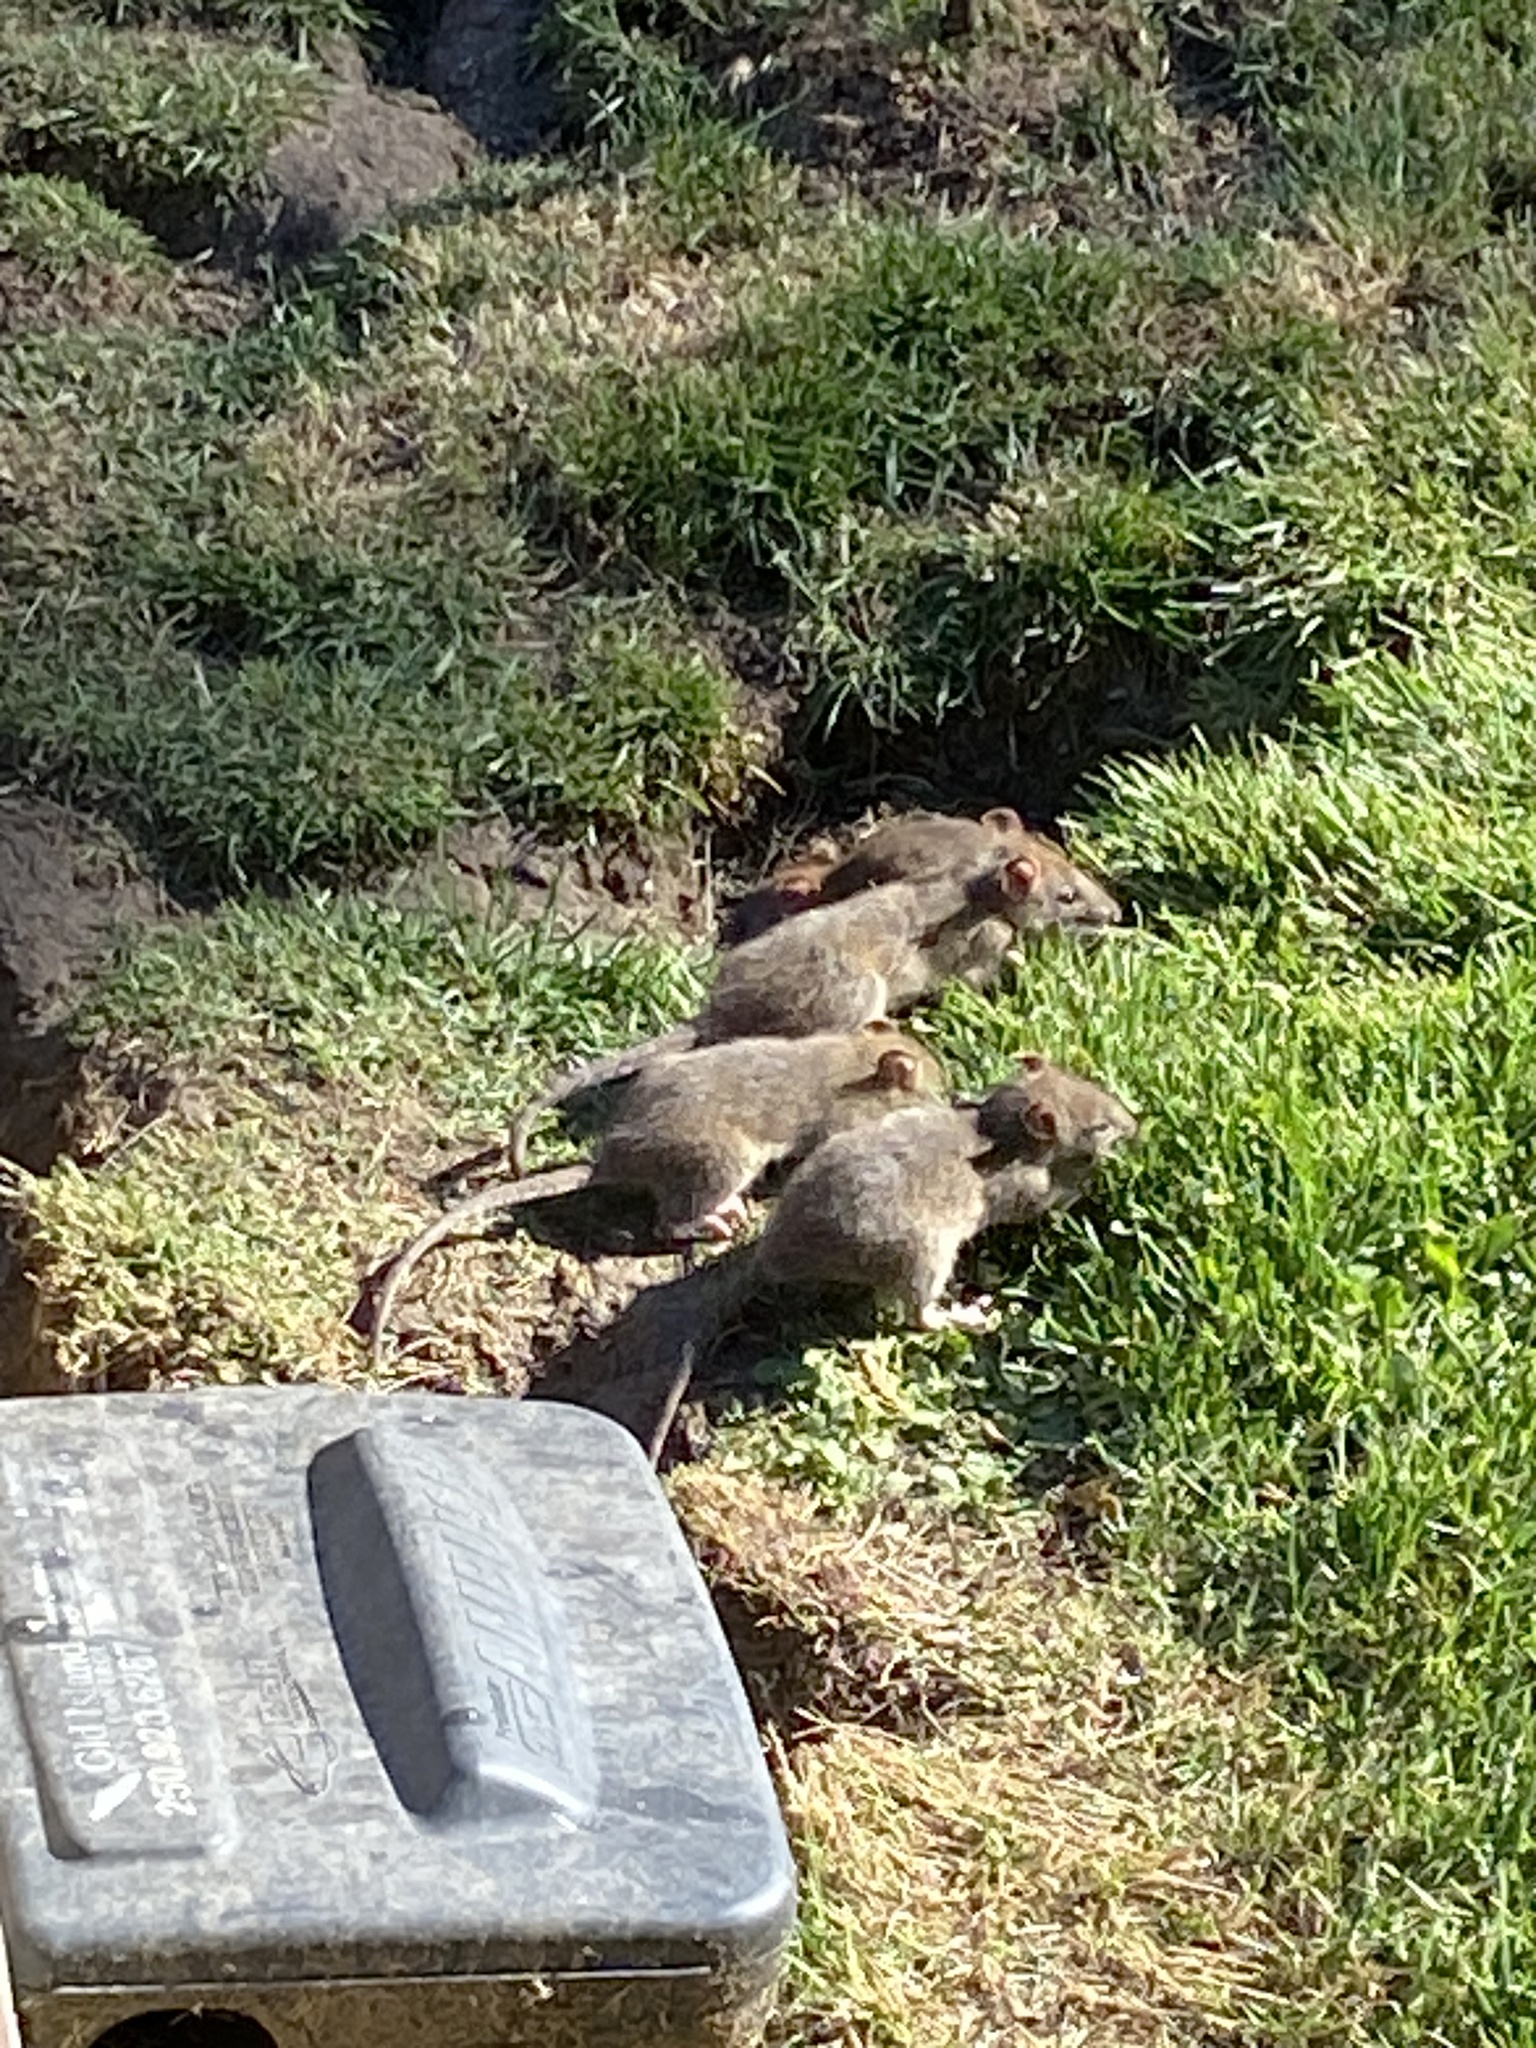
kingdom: Animalia
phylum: Chordata
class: Mammalia
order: Rodentia
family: Muridae
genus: Rattus
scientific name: Rattus norvegicus
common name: Brown rat
